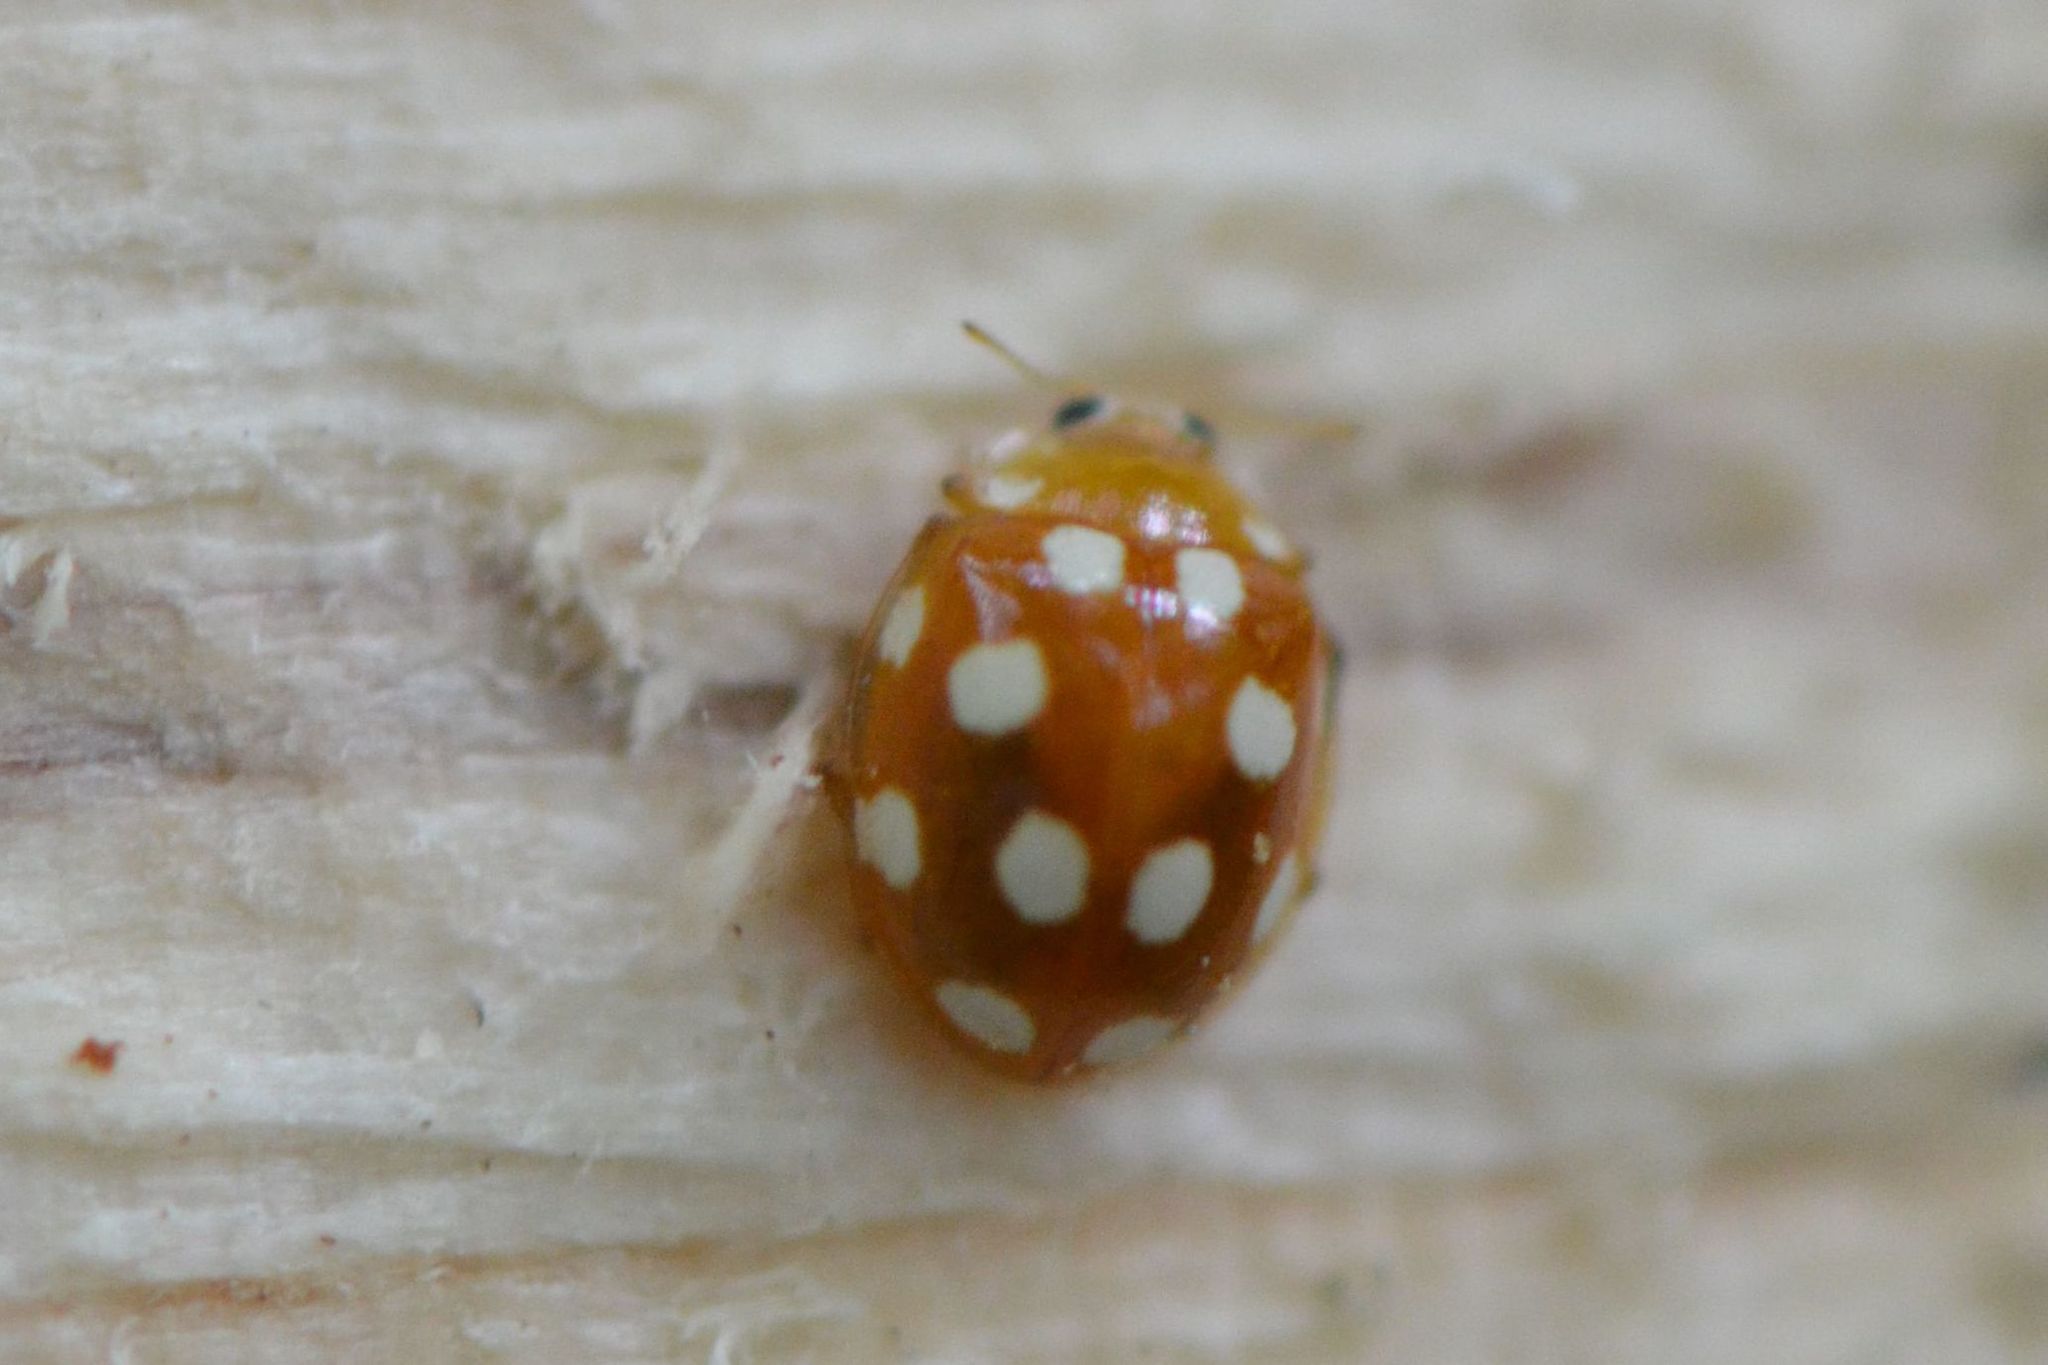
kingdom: Animalia
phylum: Arthropoda
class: Insecta
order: Coleoptera
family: Coccinellidae
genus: Vibidia
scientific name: Vibidia duodecimguttata
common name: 12-spot ladybird
